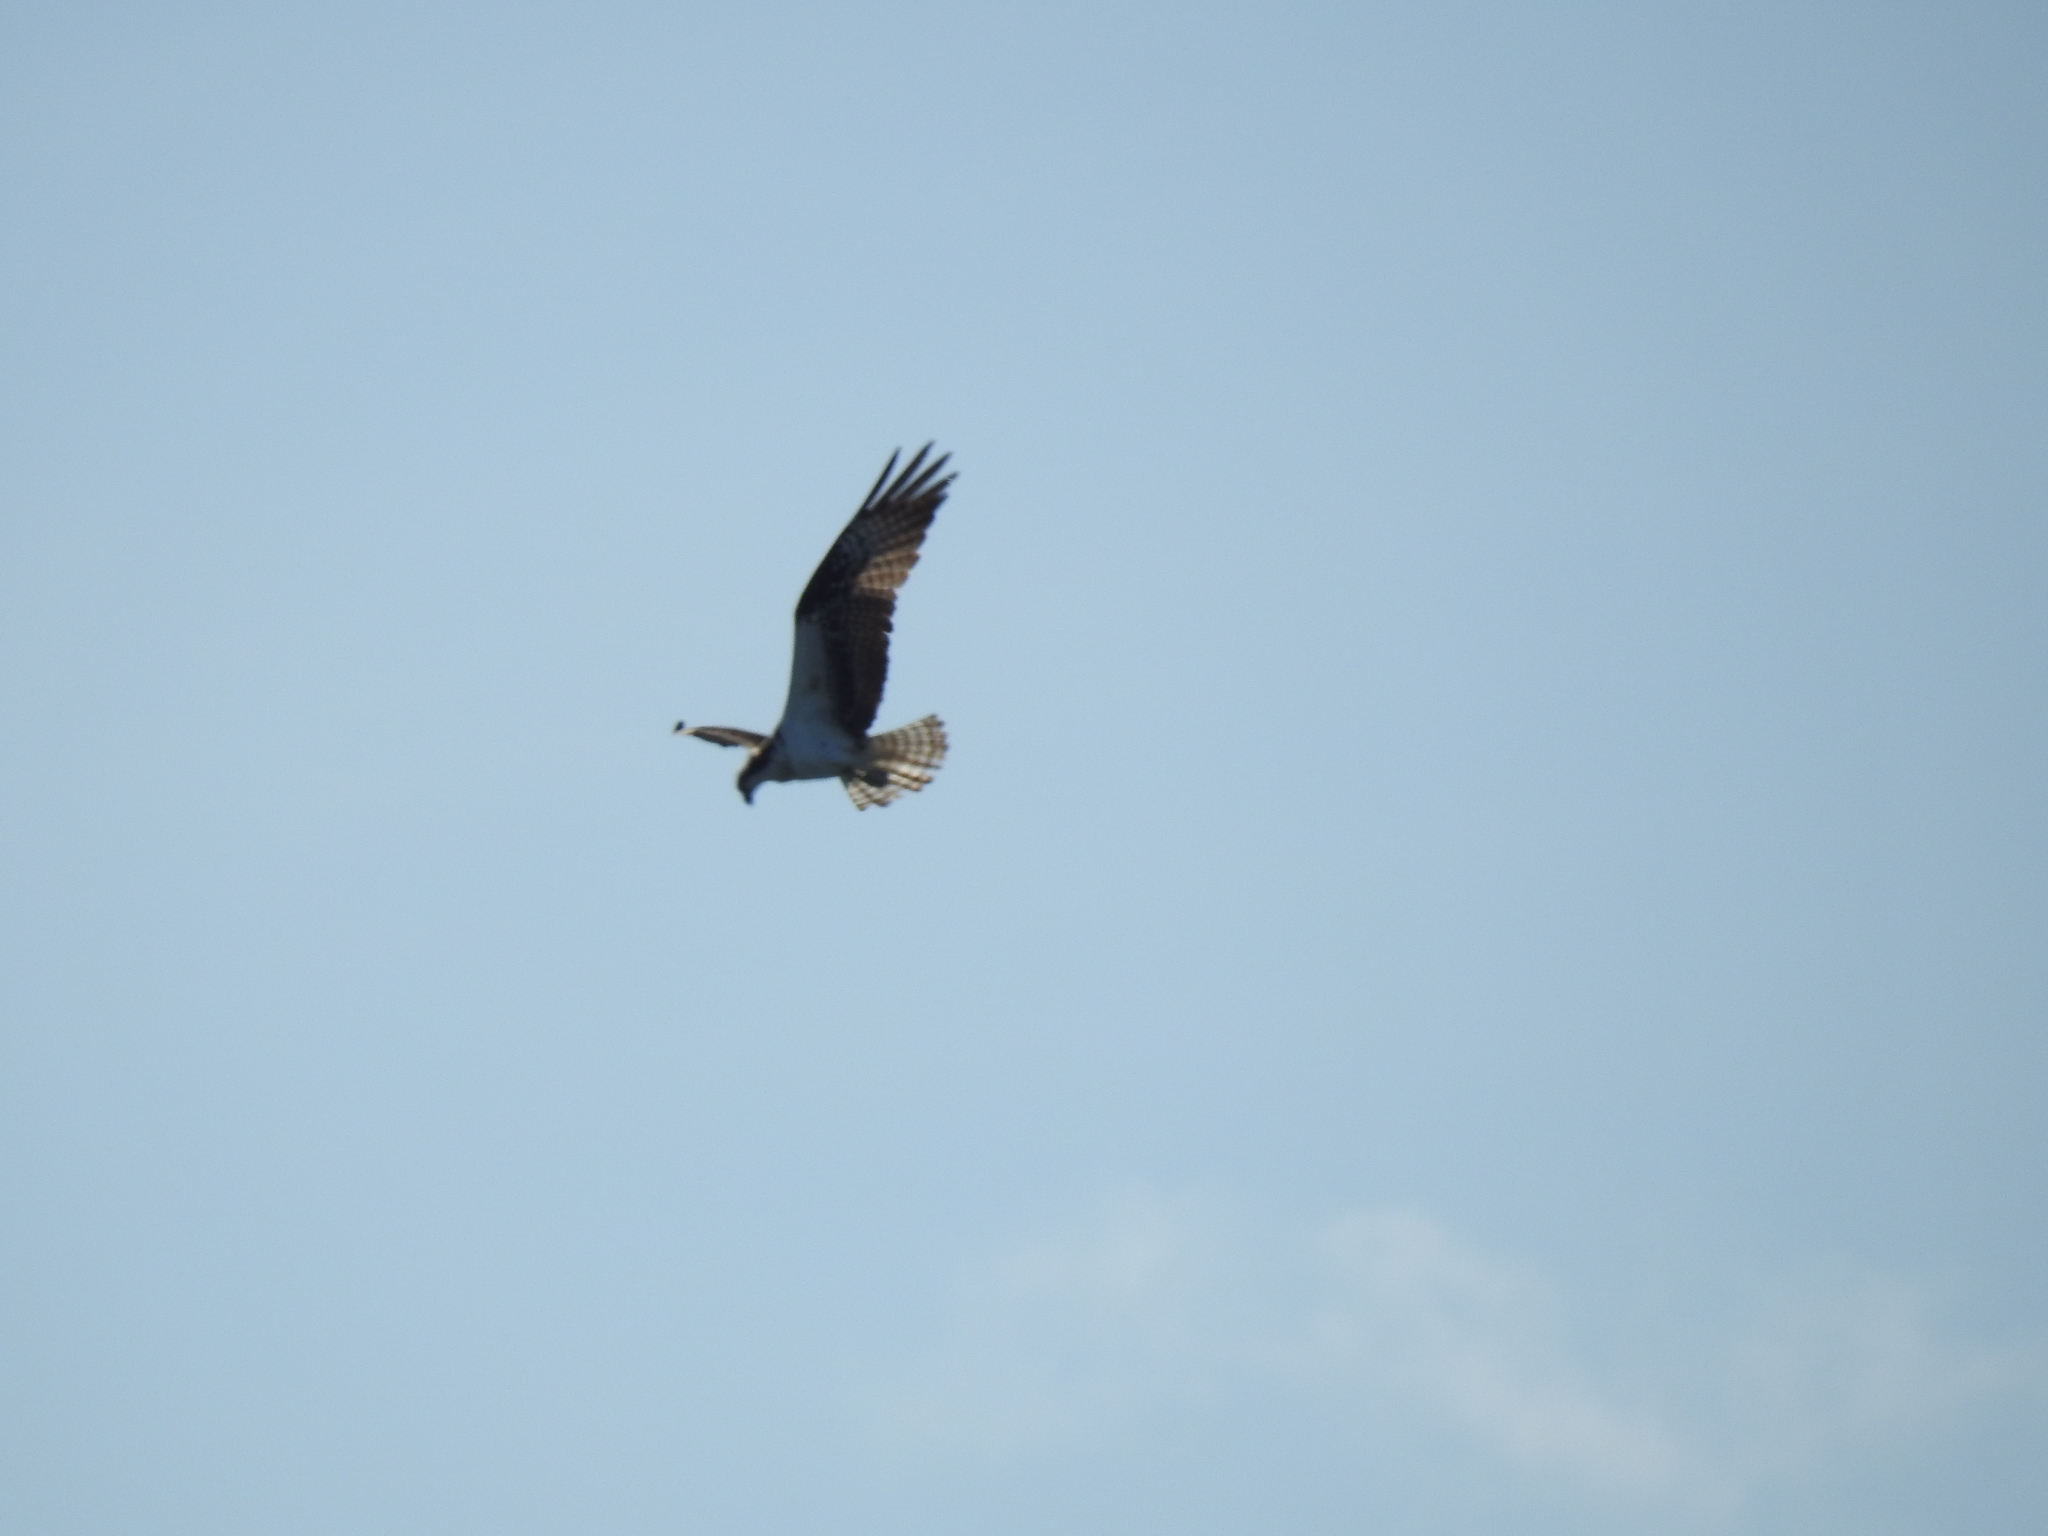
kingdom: Animalia
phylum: Chordata
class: Aves
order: Accipitriformes
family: Pandionidae
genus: Pandion
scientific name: Pandion haliaetus
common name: Osprey
